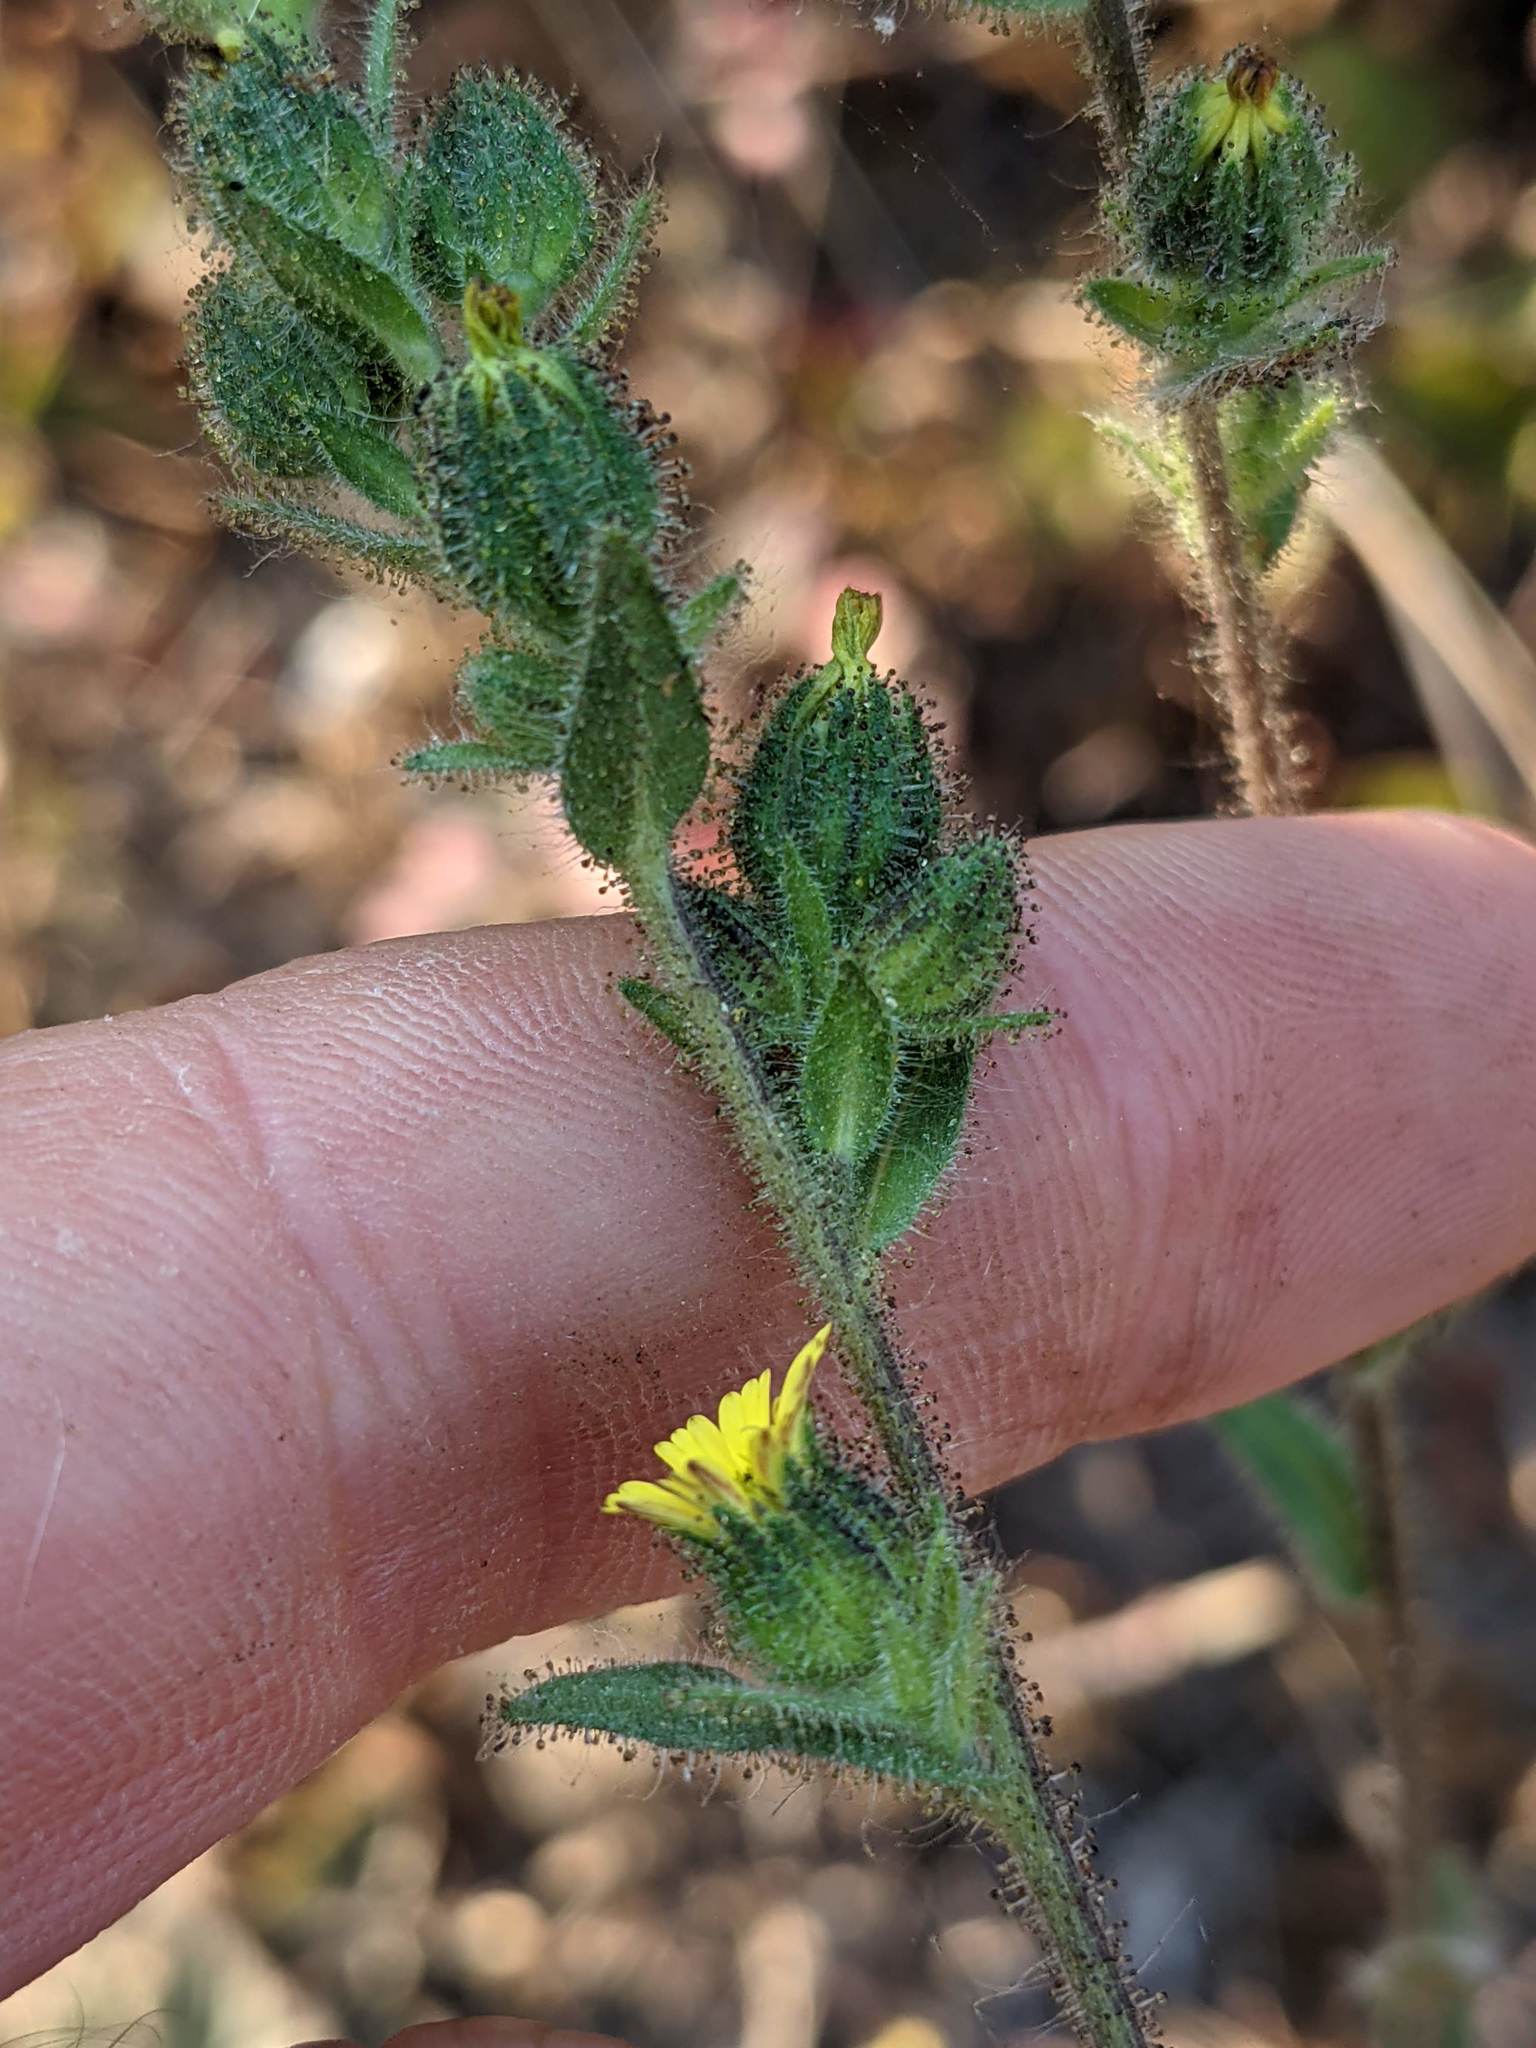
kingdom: Plantae
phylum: Tracheophyta
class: Magnoliopsida
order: Asterales
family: Asteraceae
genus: Madia
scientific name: Madia sativa
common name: Coast tarweed
